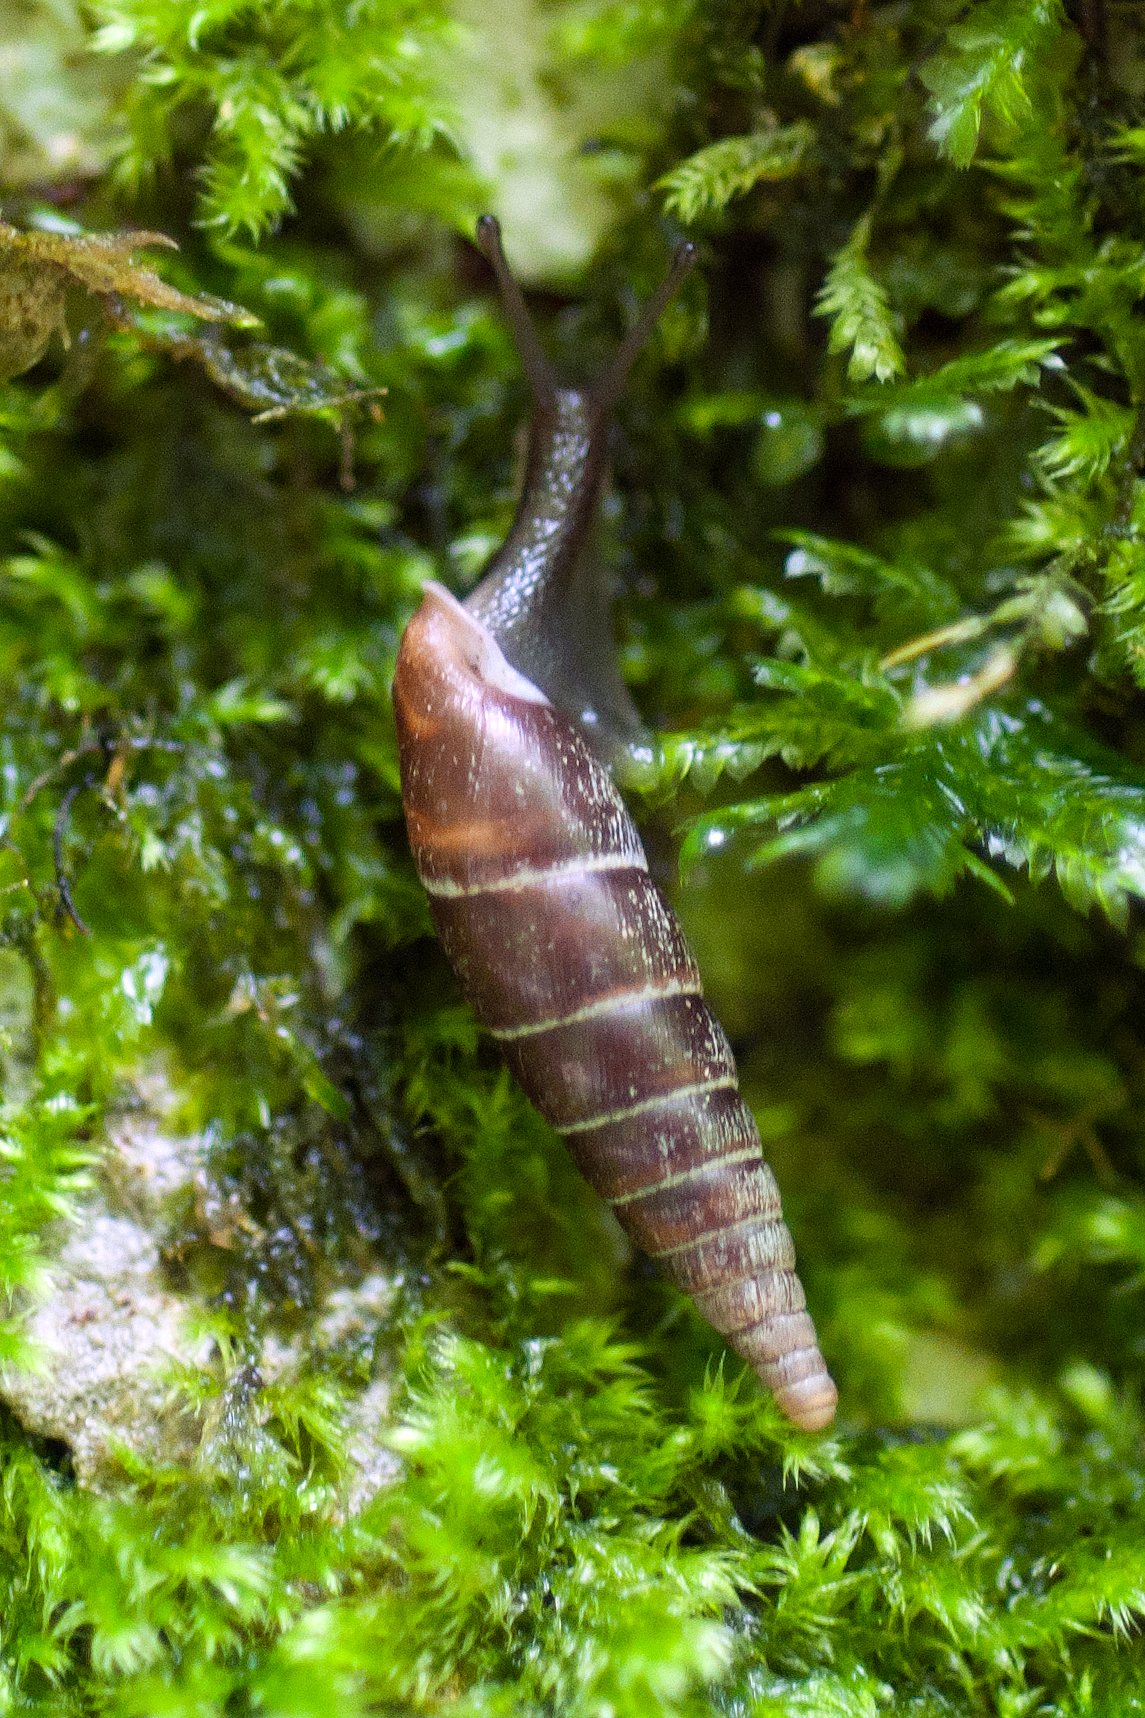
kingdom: Animalia
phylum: Mollusca
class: Gastropoda
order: Stylommatophora
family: Clausiliidae
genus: Cochlodina
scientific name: Cochlodina laminata
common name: Plaited door snail
